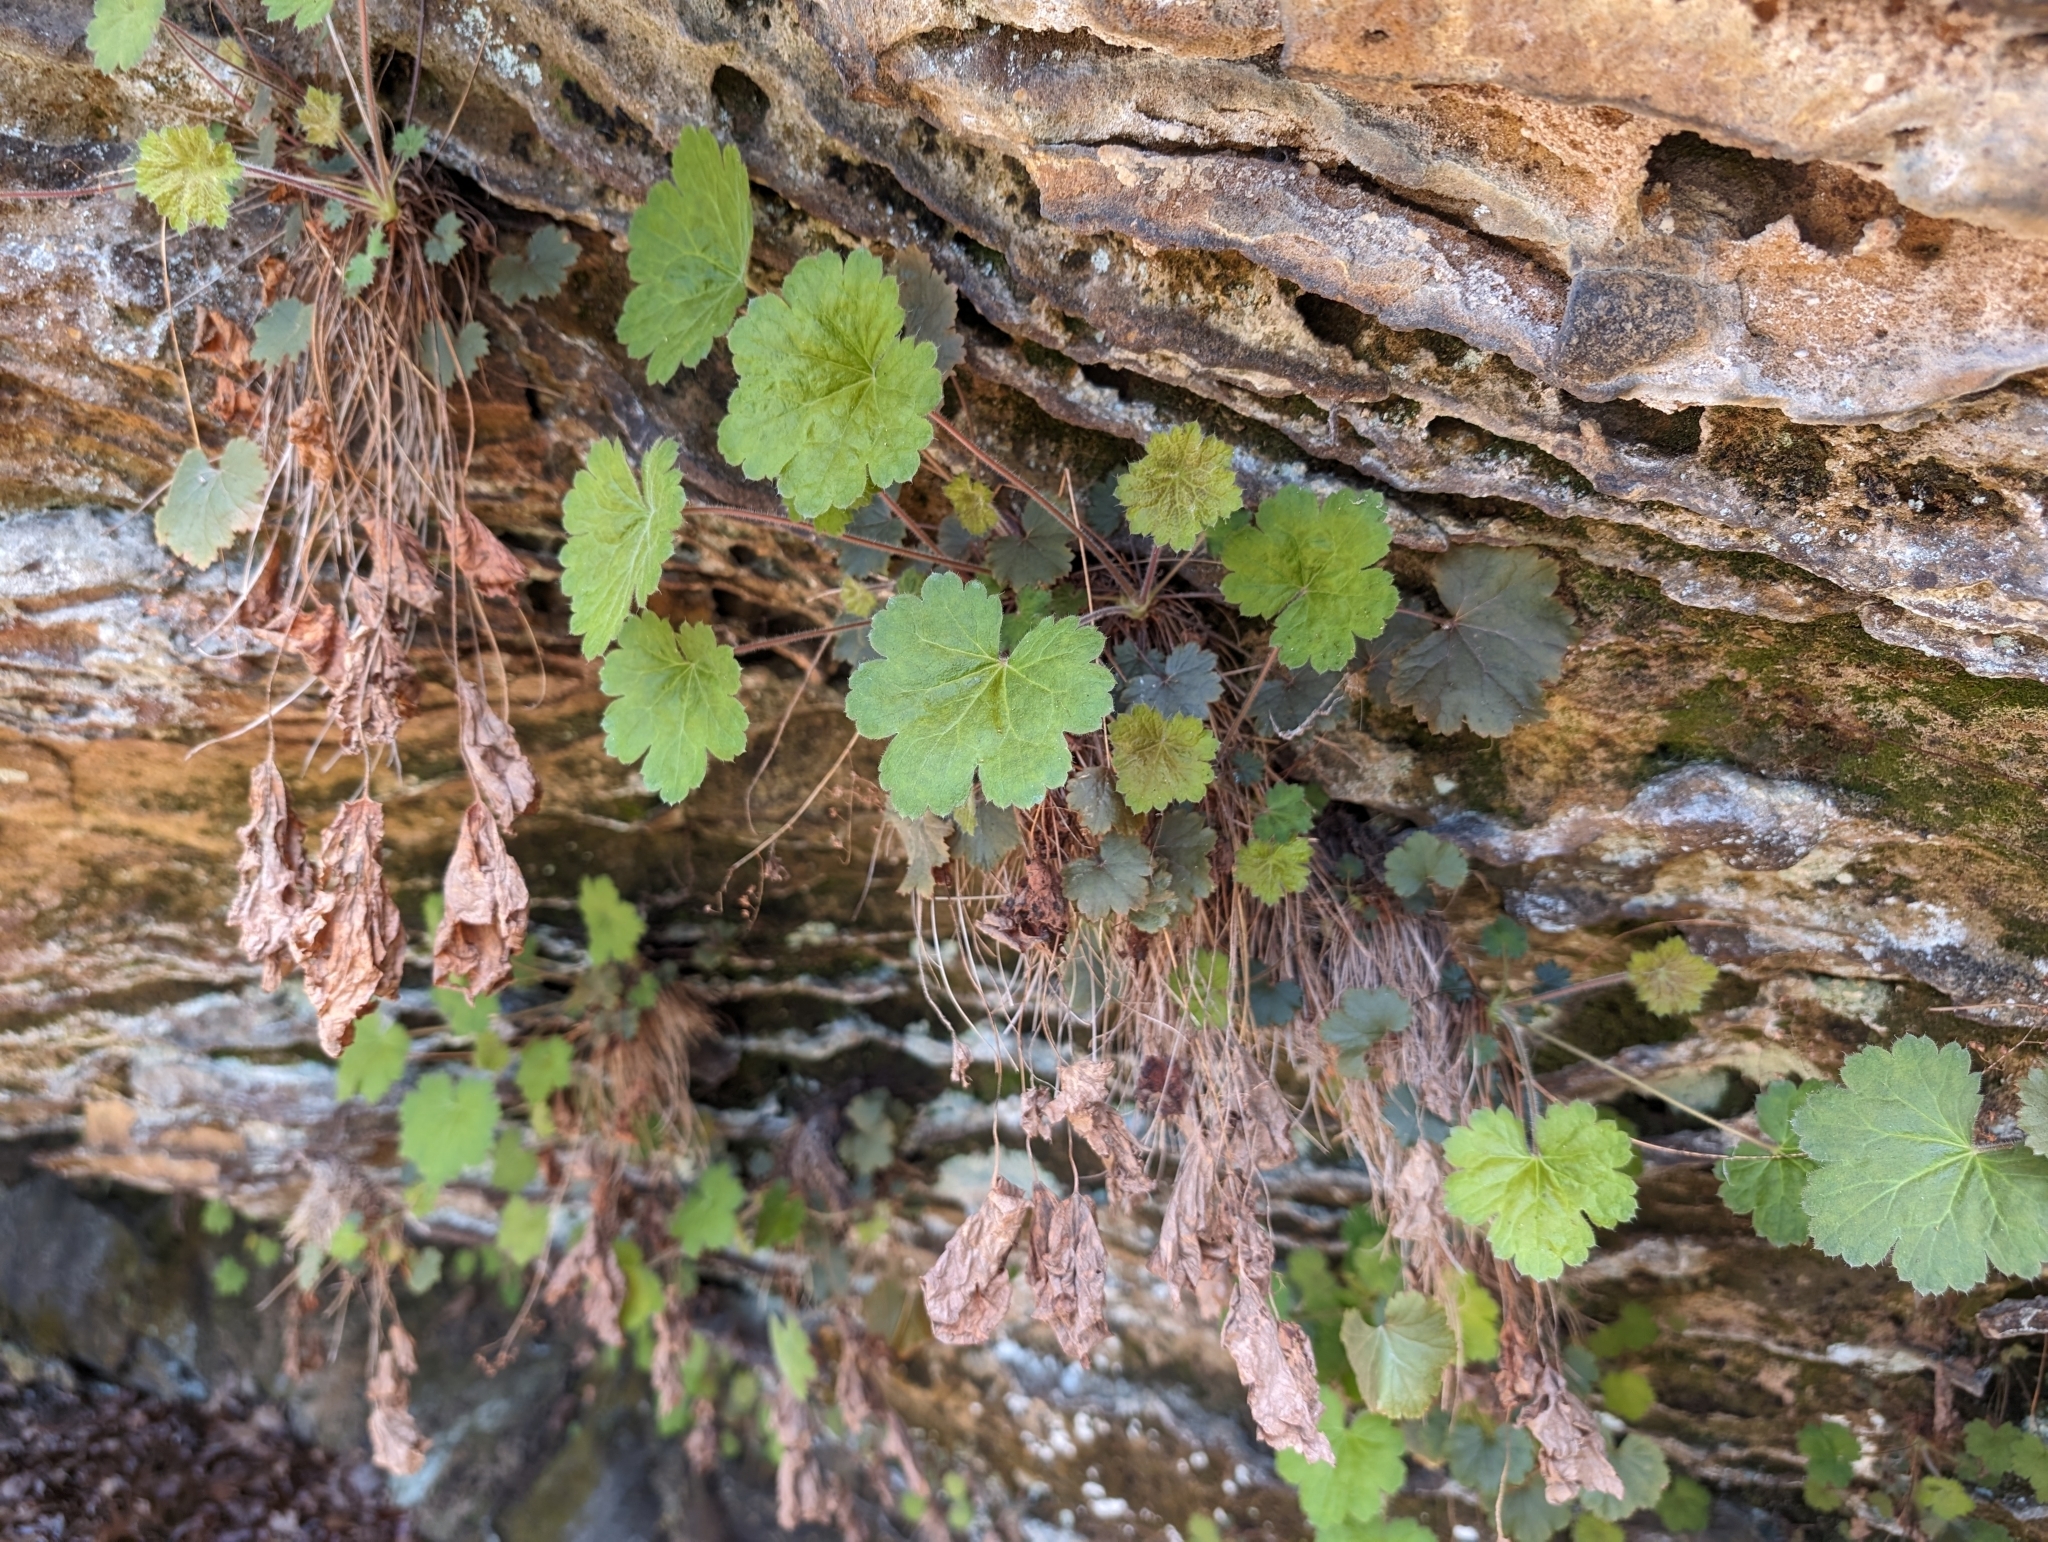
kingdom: Plantae
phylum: Tracheophyta
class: Magnoliopsida
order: Saxifragales
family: Saxifragaceae
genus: Heuchera
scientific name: Heuchera missouriensis
